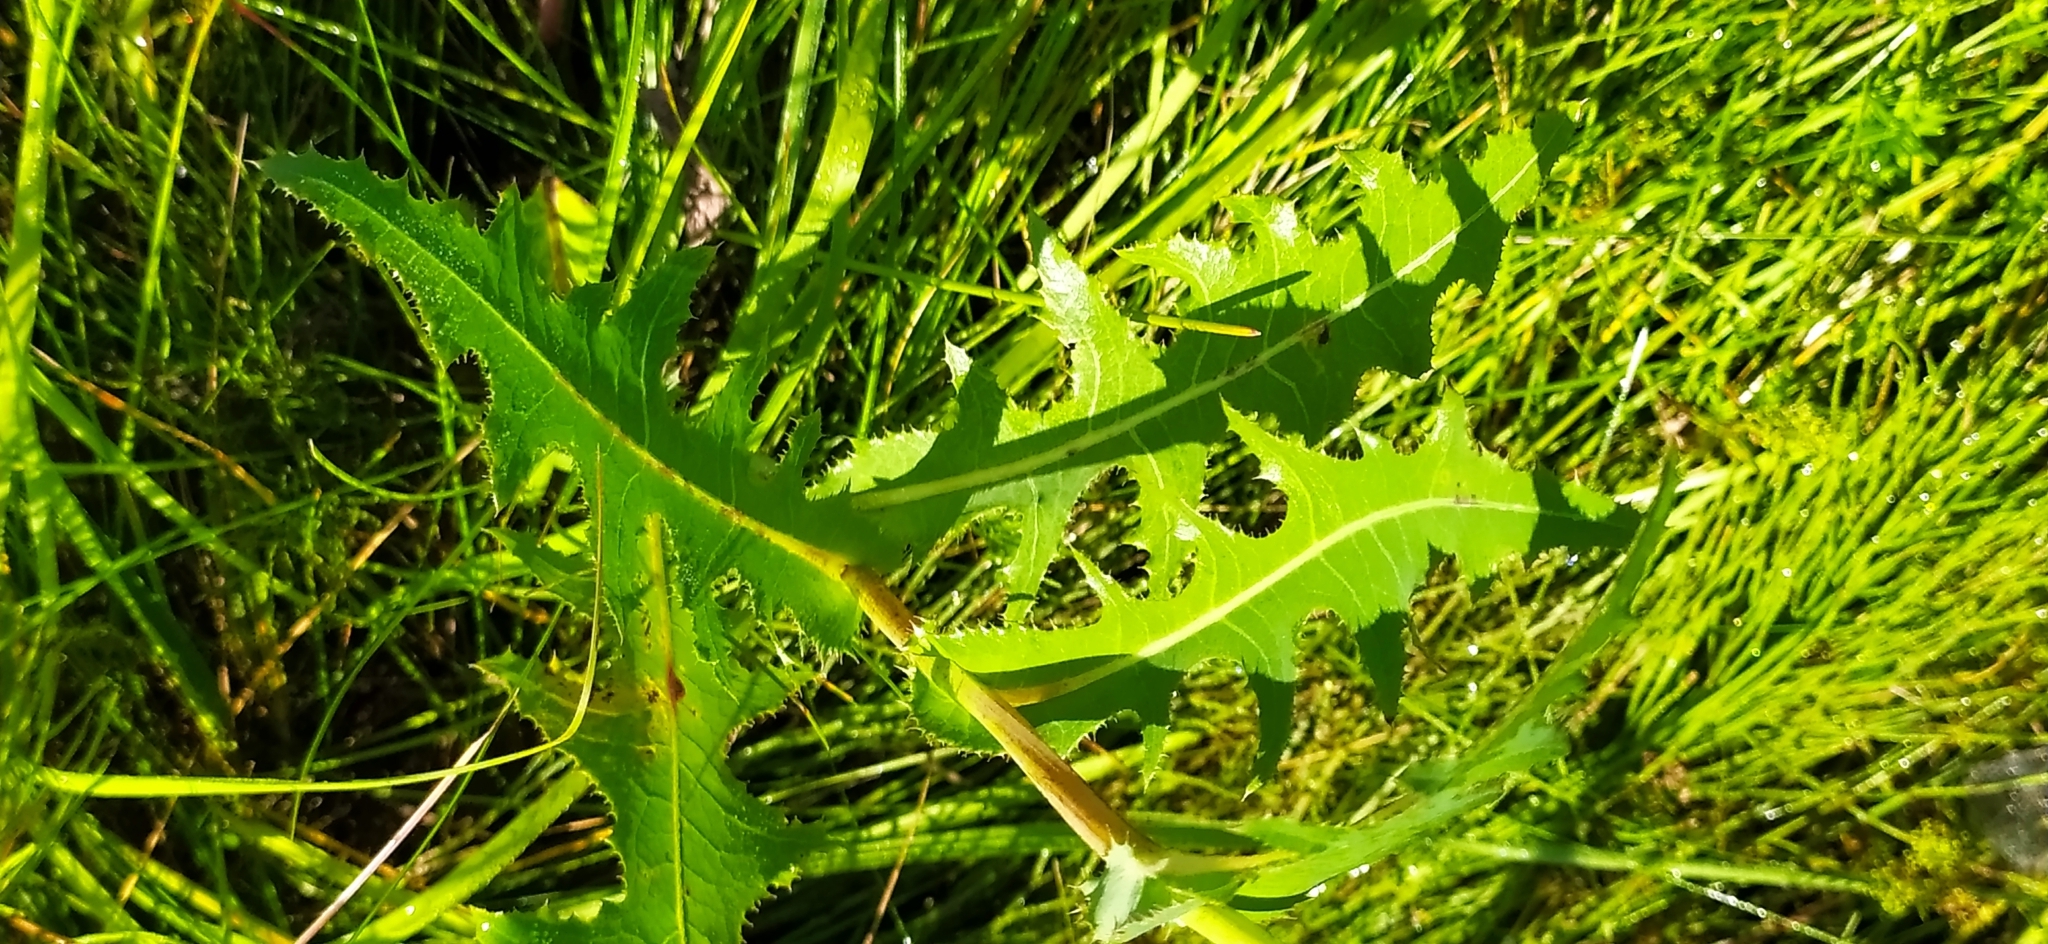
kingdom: Plantae
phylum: Tracheophyta
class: Magnoliopsida
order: Asterales
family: Asteraceae
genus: Sonchus
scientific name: Sonchus arvensis
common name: Perennial sow-thistle
